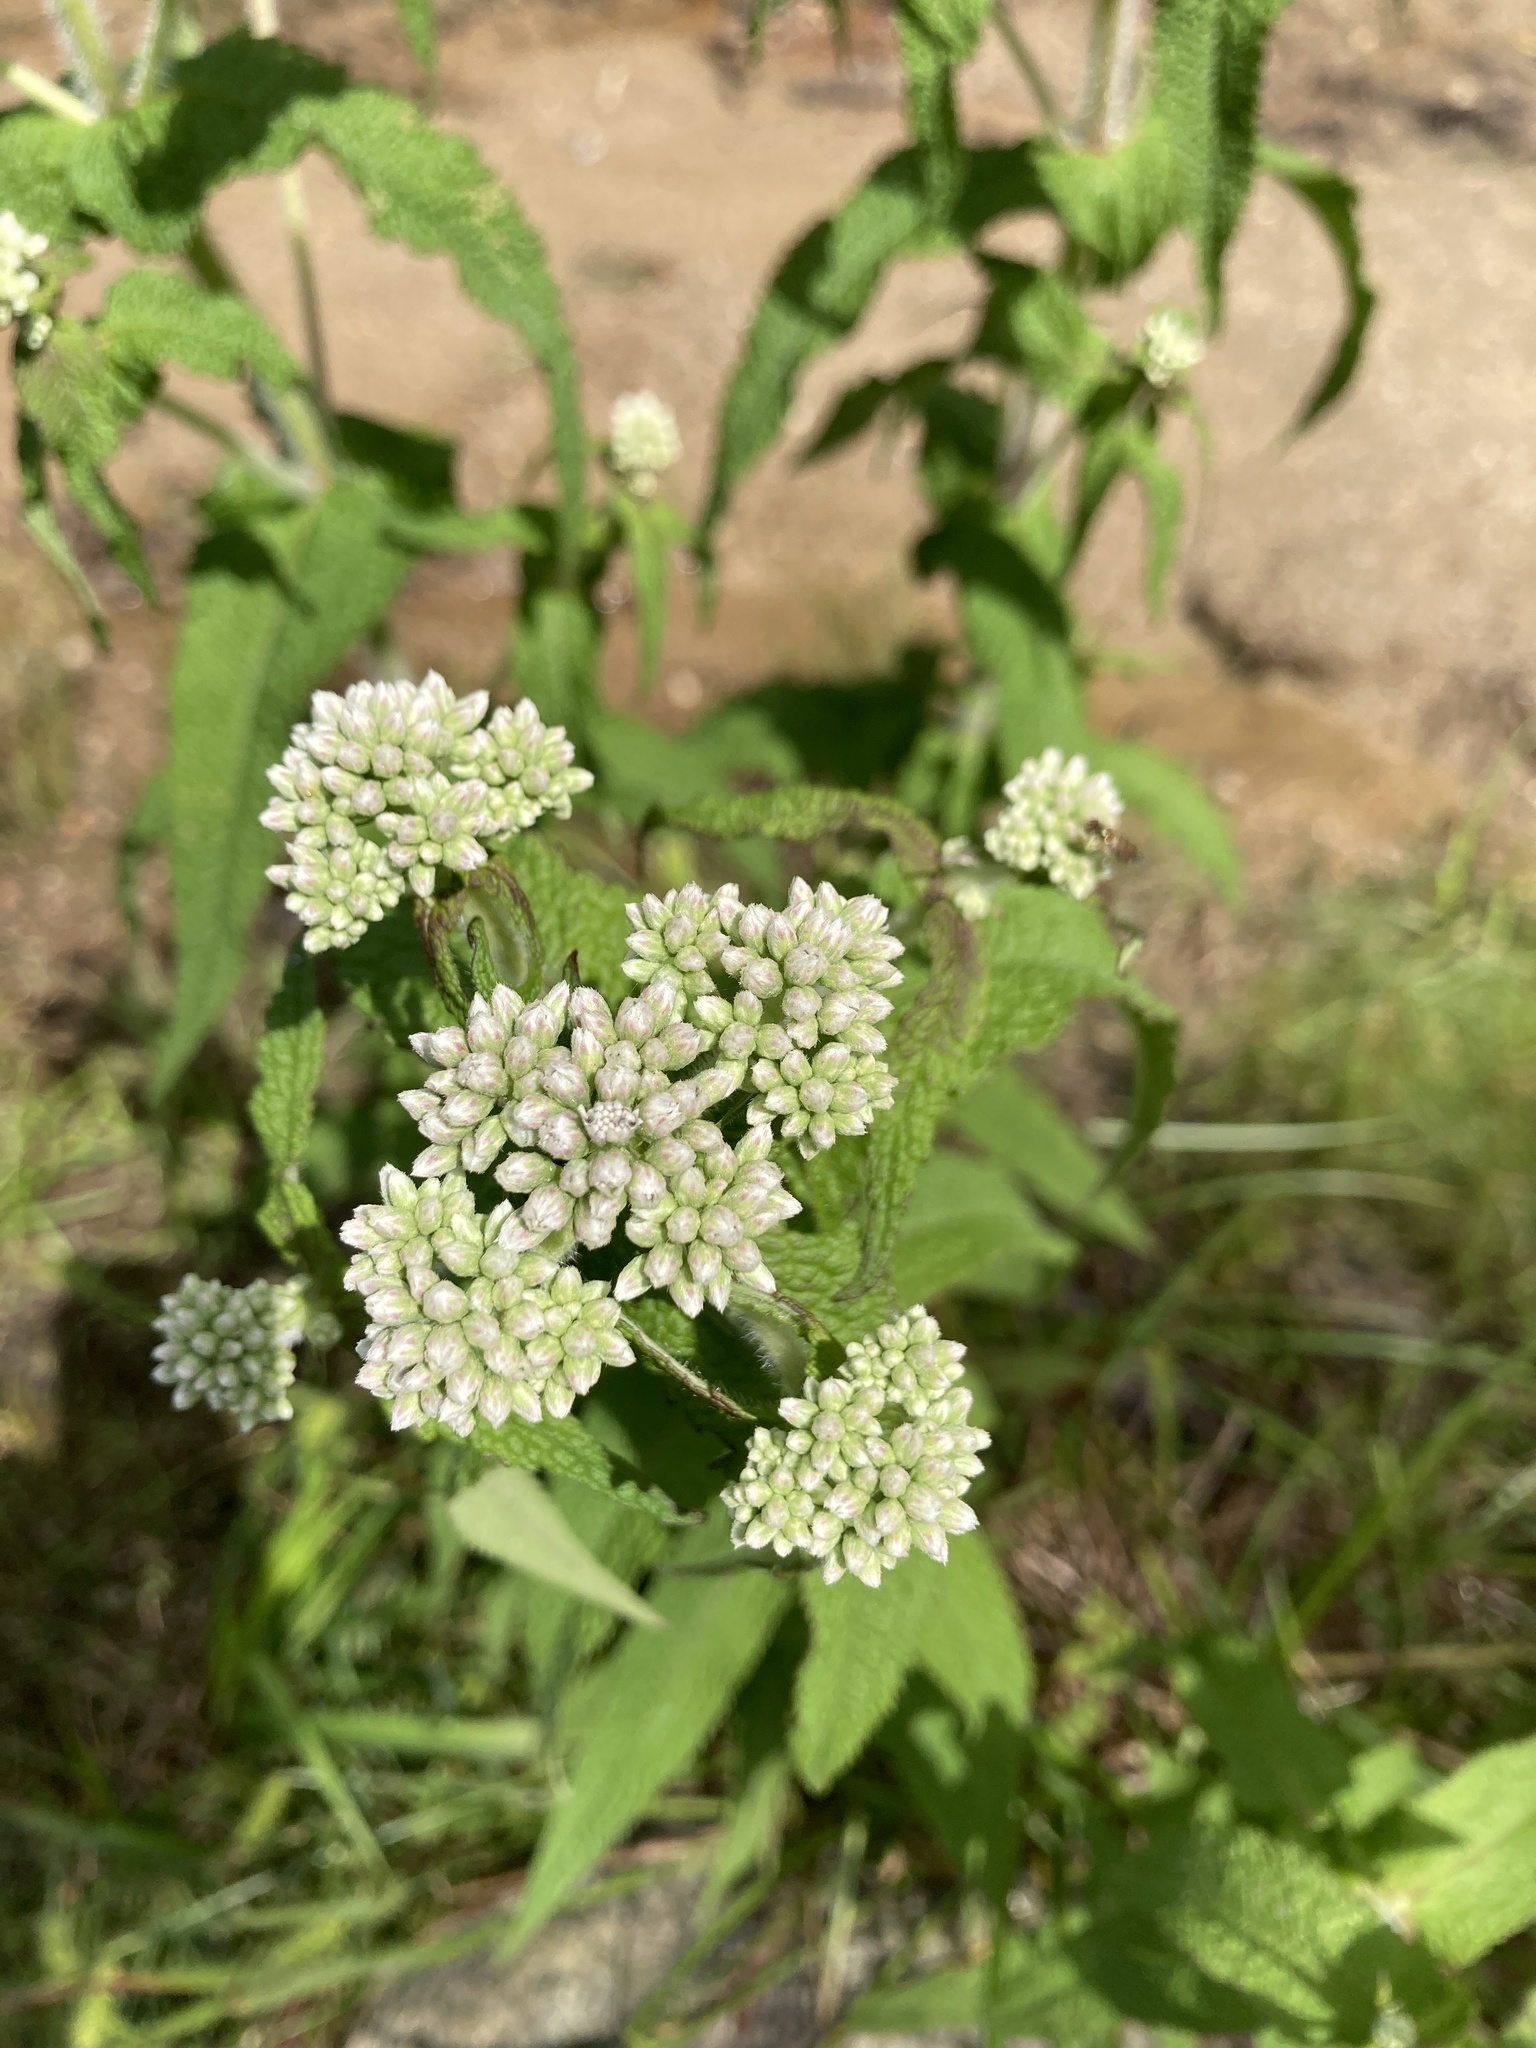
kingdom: Plantae
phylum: Tracheophyta
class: Magnoliopsida
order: Asterales
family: Asteraceae
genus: Eupatorium
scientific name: Eupatorium perfoliatum
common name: Boneset
